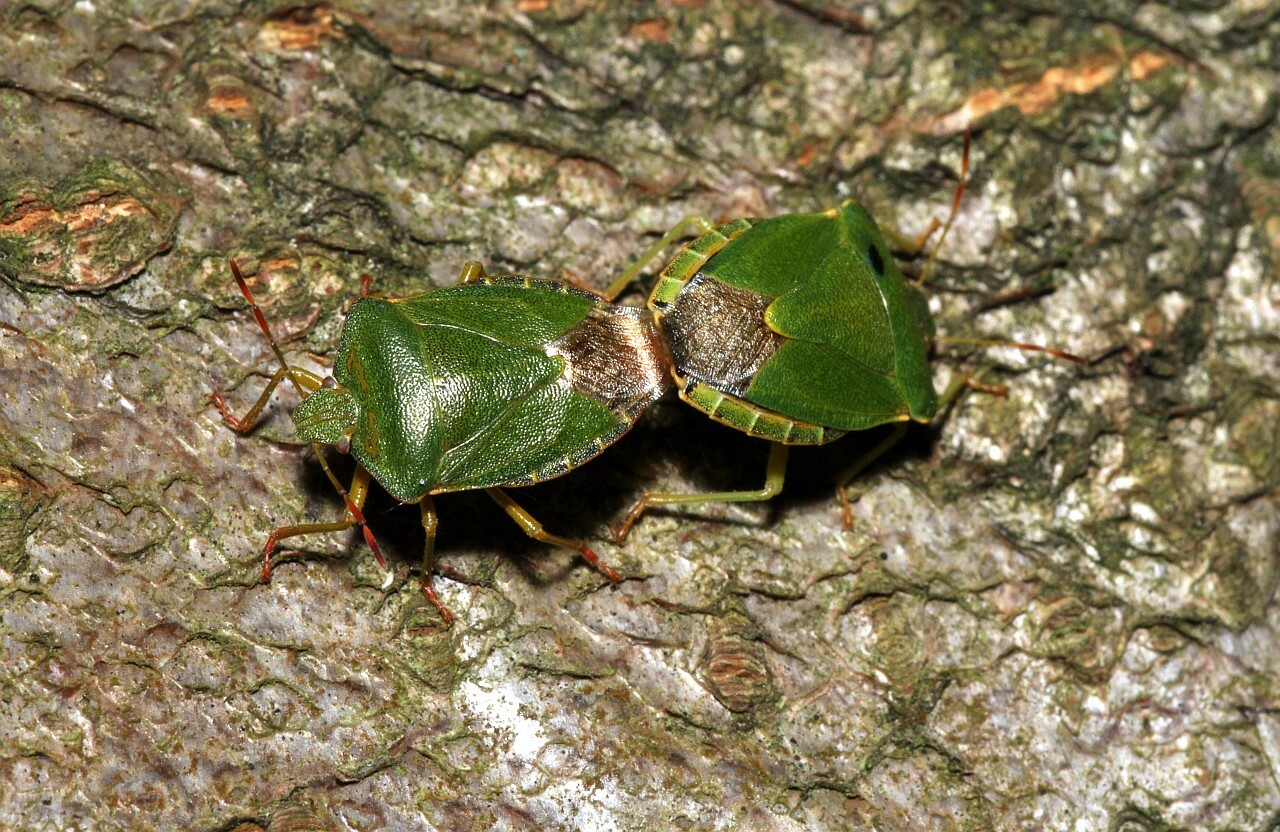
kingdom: Animalia
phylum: Arthropoda
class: Insecta
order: Hemiptera
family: Pentatomidae
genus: Palomena
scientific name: Palomena prasina
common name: Green shieldbug
